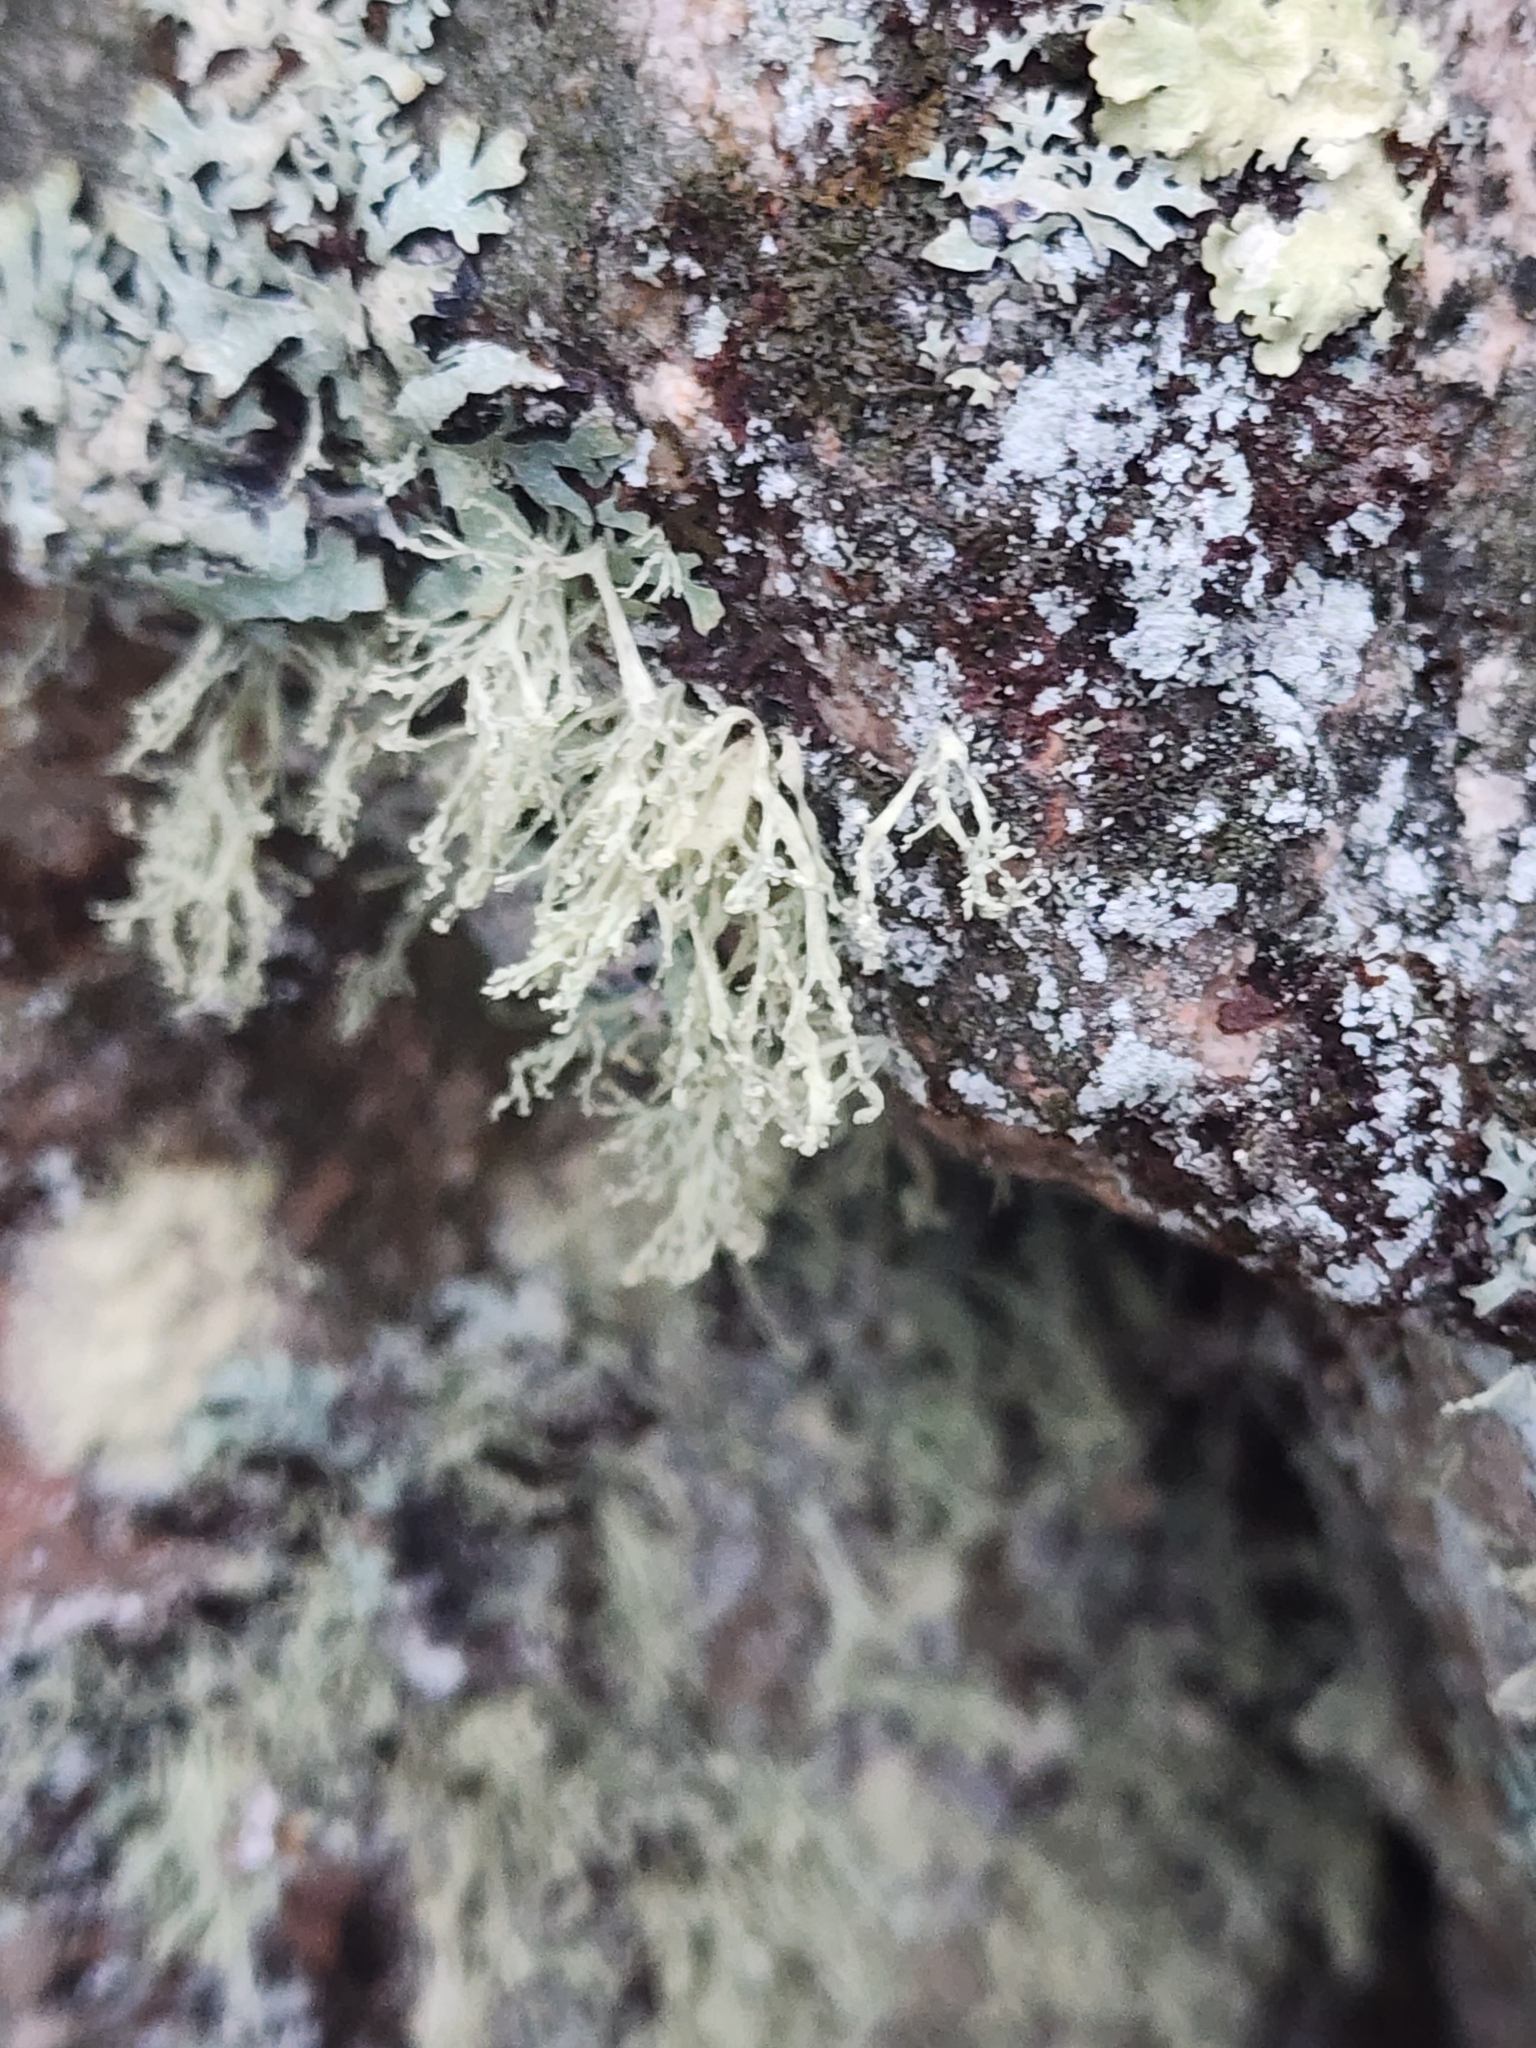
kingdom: Fungi
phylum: Ascomycota
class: Lecanoromycetes
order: Lecanorales
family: Ramalinaceae
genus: Ramalina
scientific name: Ramalina intermedia
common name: Rock bushy lichen
